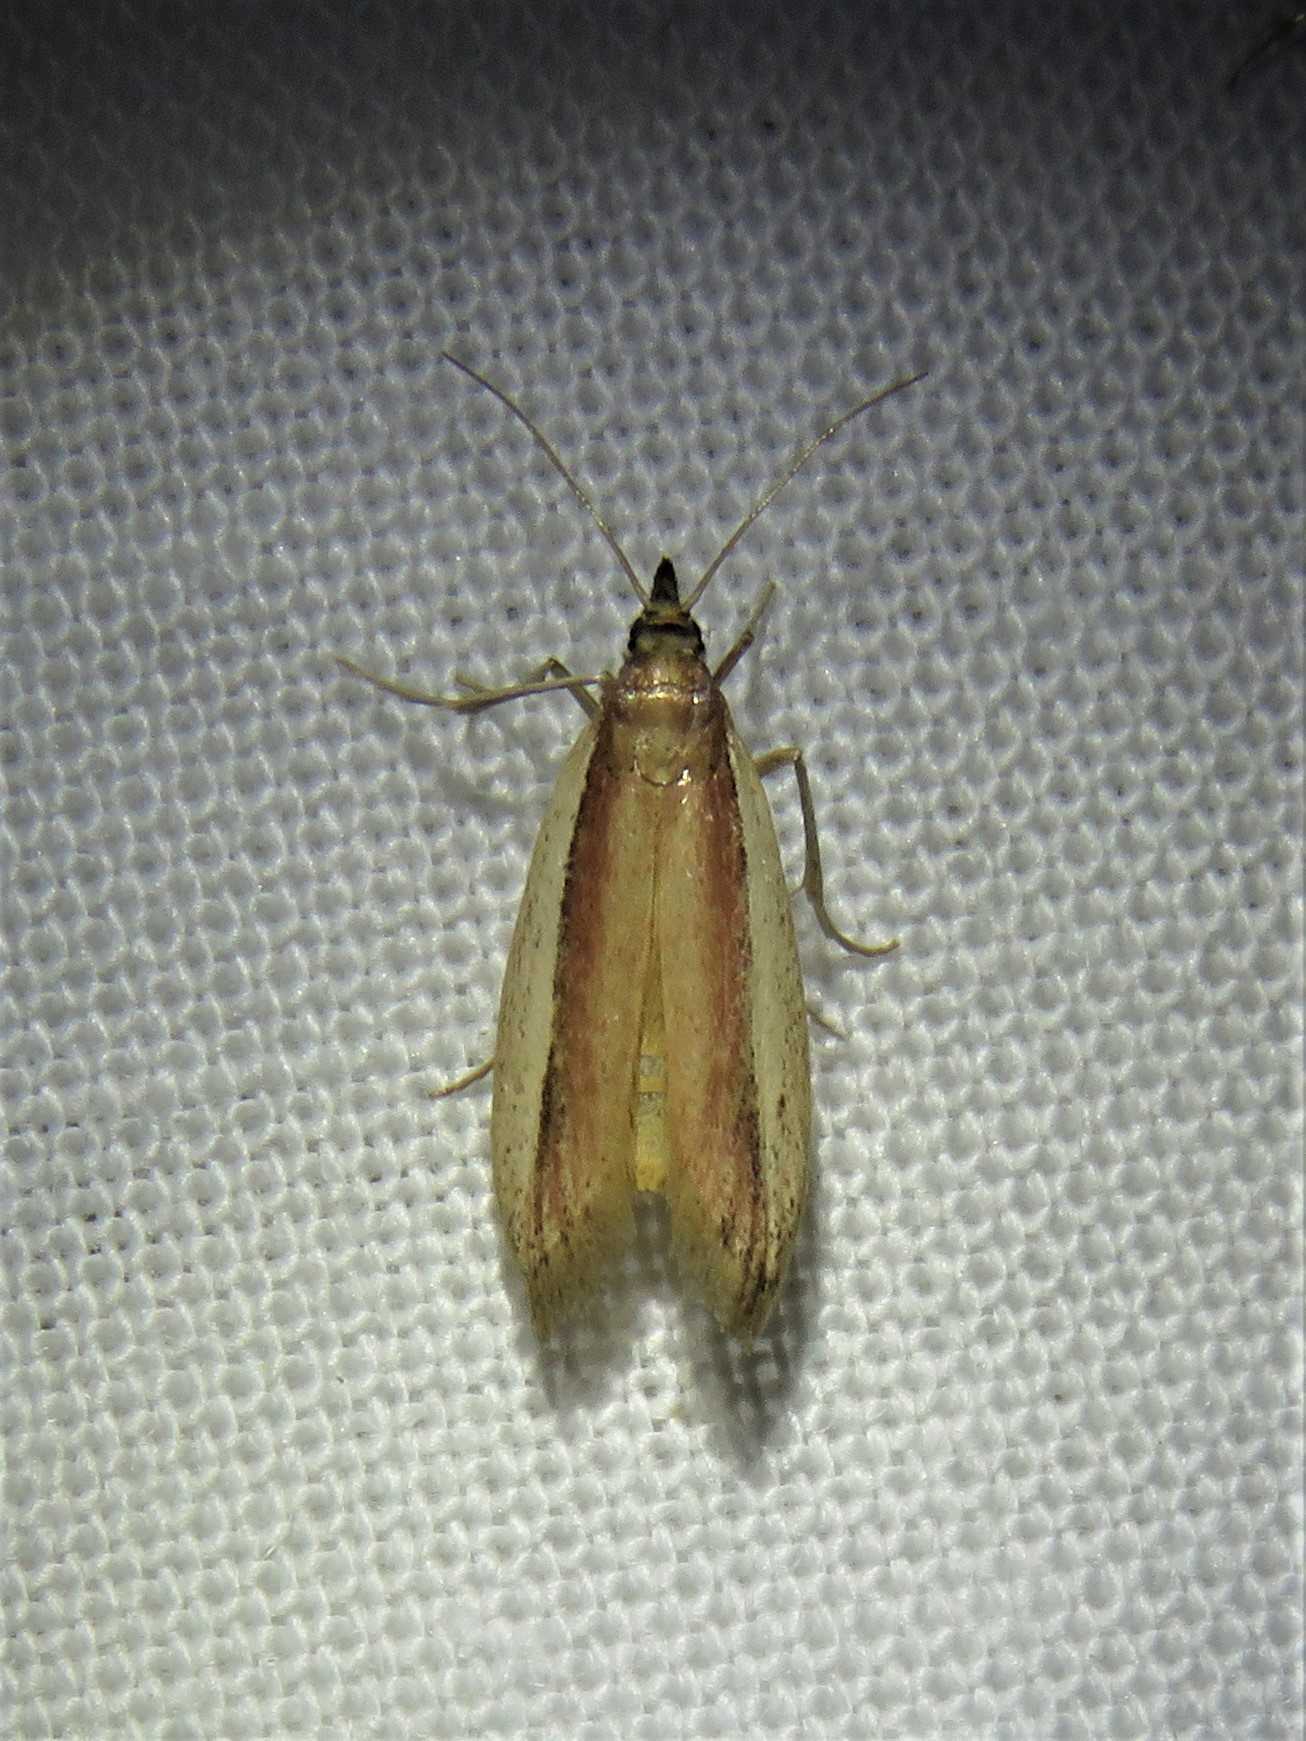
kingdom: Animalia
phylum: Arthropoda
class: Insecta
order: Lepidoptera
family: Pyralidae
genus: Tampa
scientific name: Tampa dimediatella
